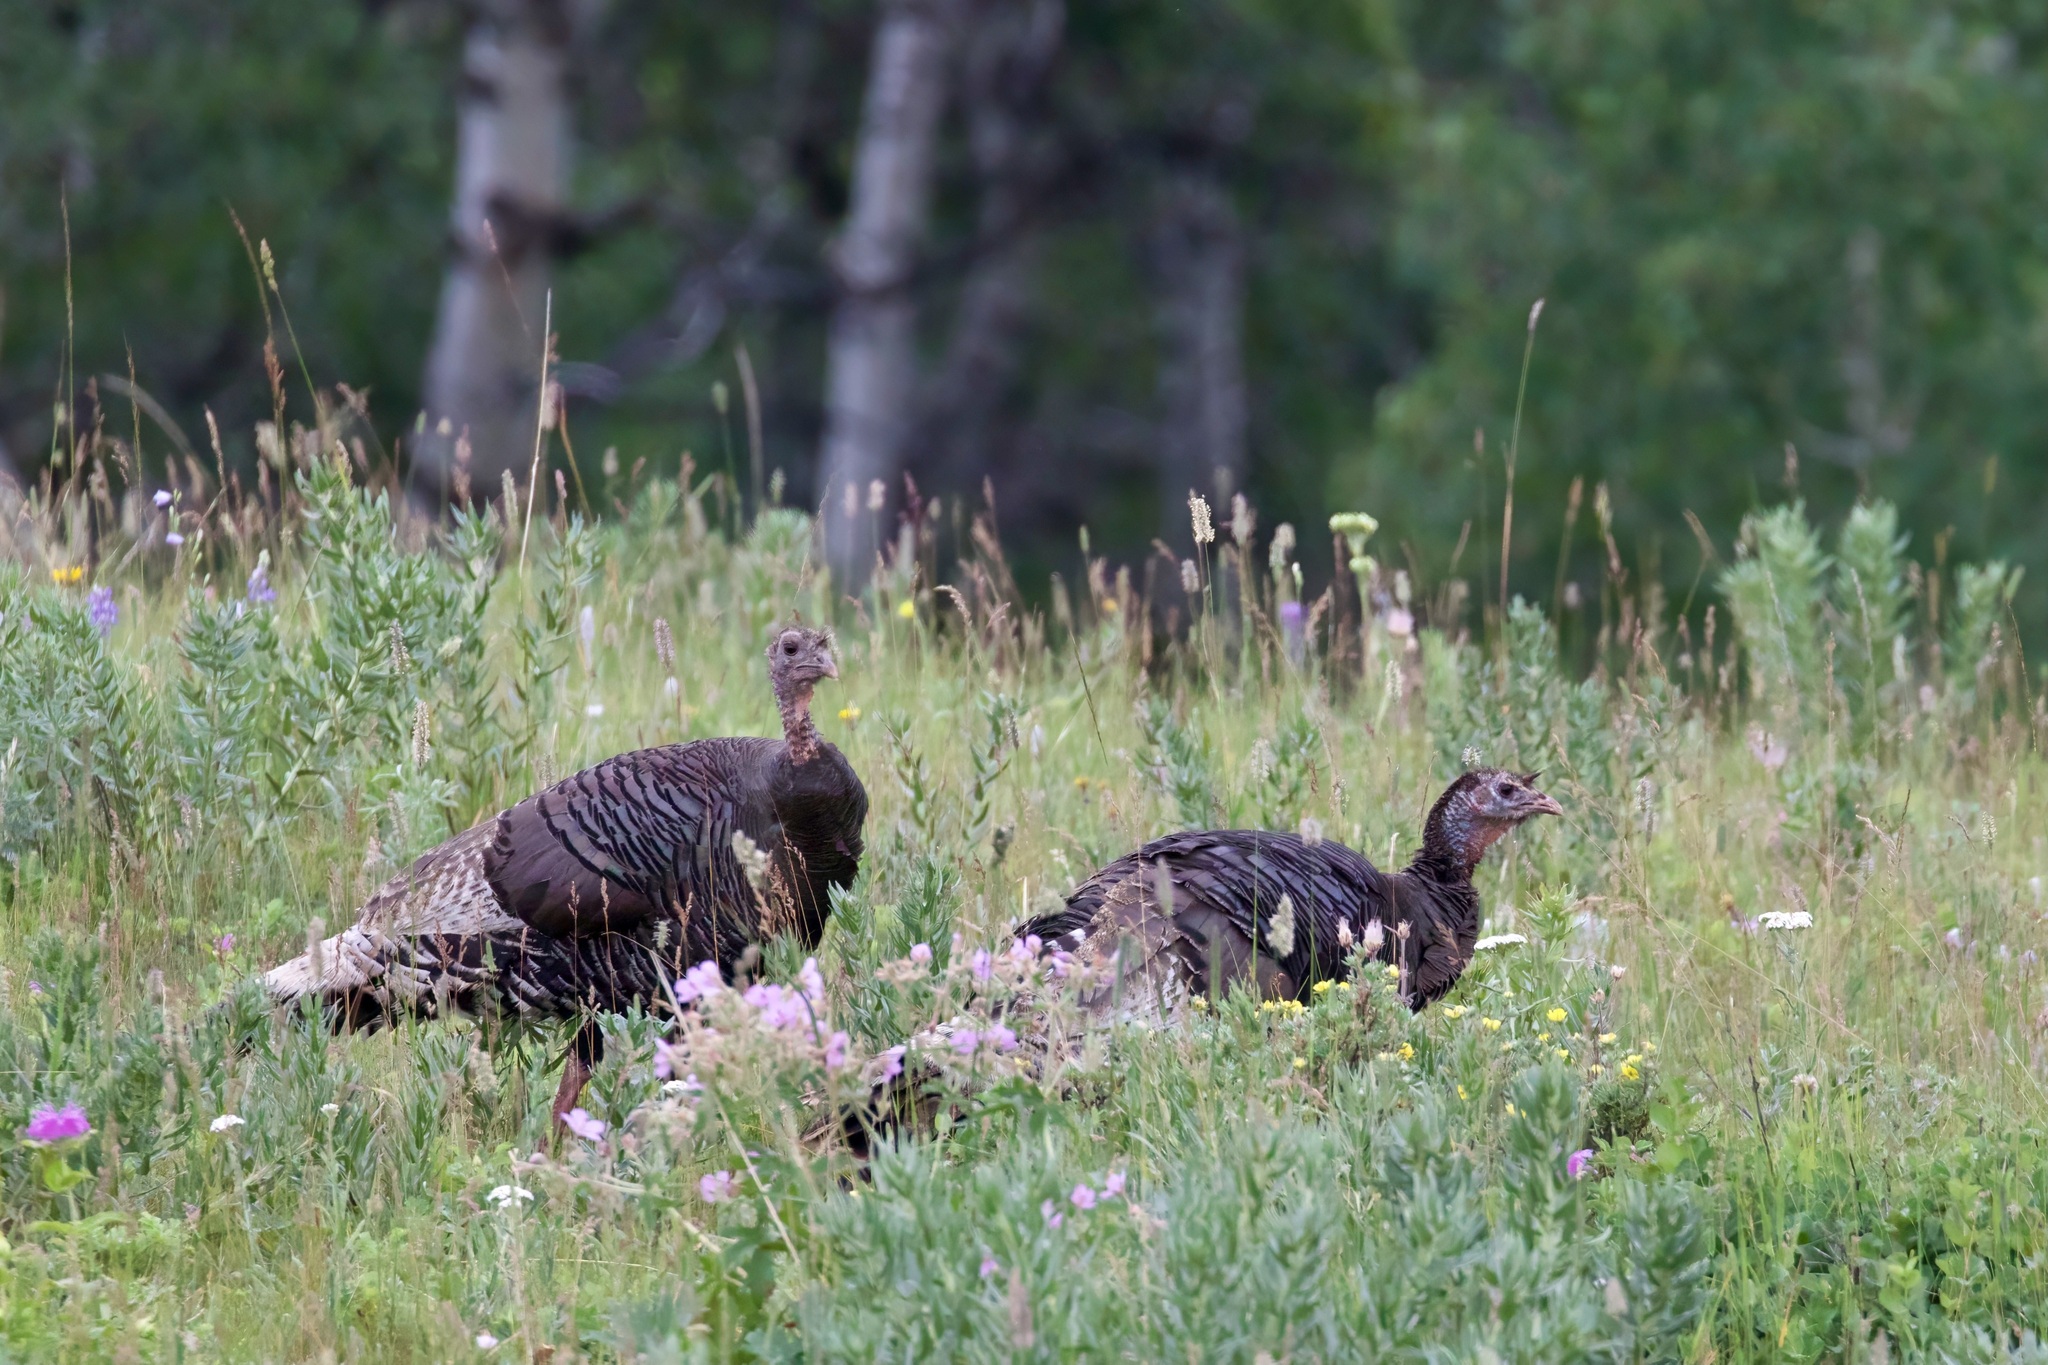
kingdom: Animalia
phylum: Chordata
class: Aves
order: Galliformes
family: Phasianidae
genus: Meleagris
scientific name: Meleagris gallopavo
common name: Wild turkey
